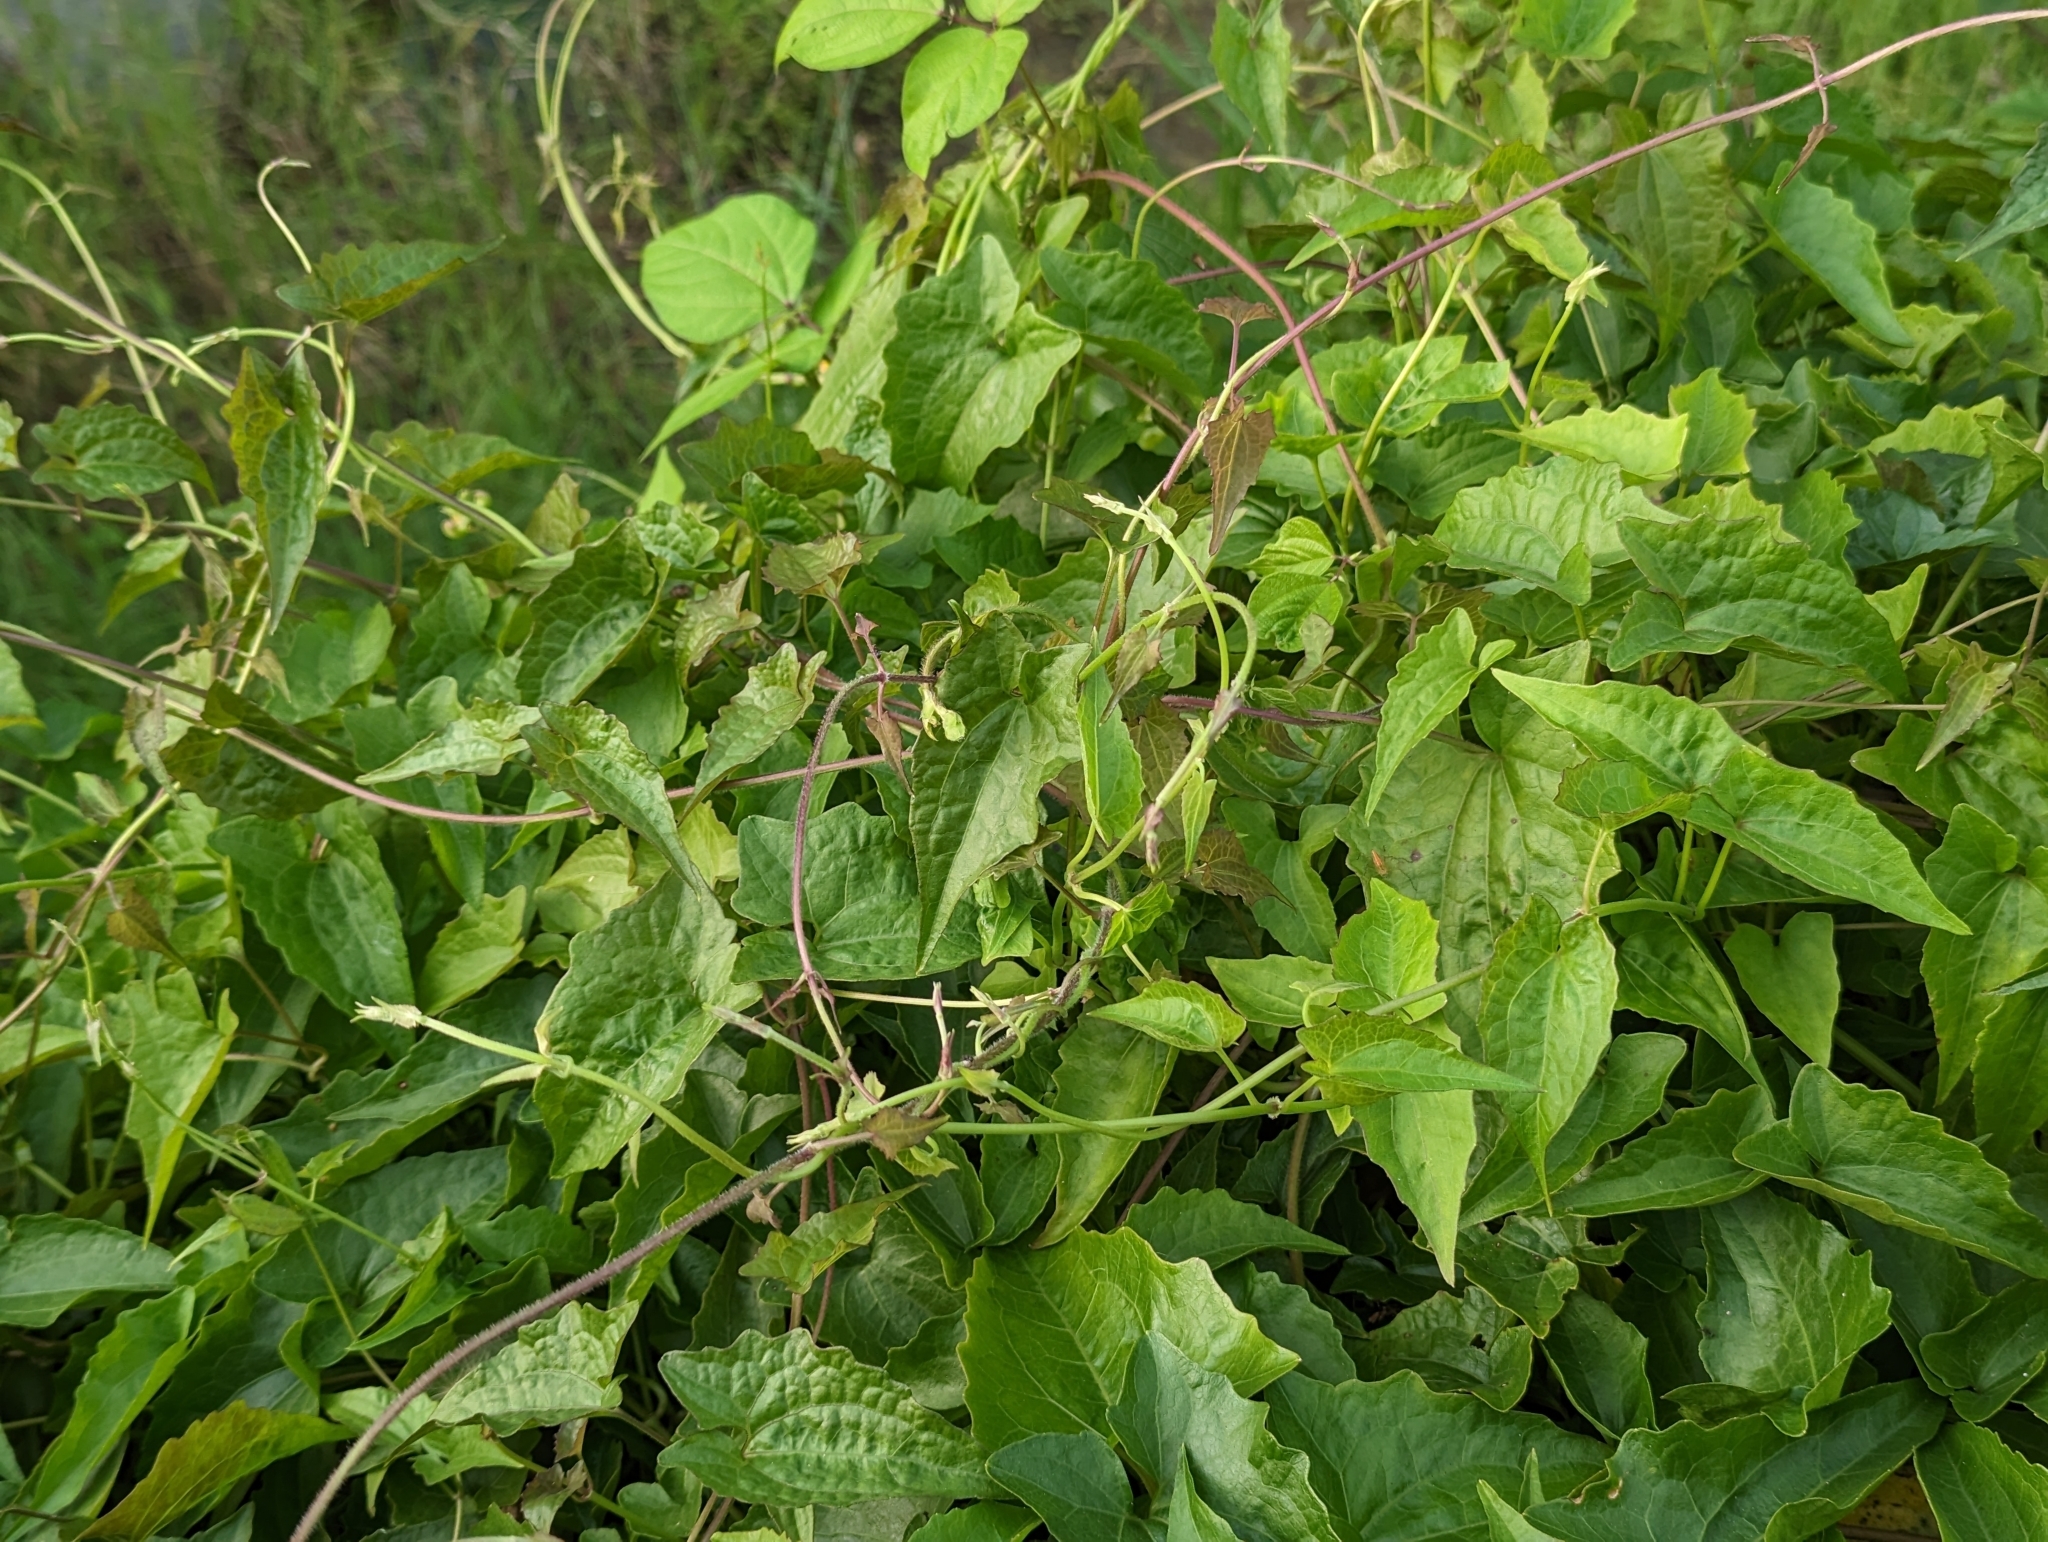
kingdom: Plantae
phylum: Tracheophyta
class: Magnoliopsida
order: Asterales
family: Asteraceae
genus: Mikania
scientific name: Mikania micrantha
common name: Mile-a-minute
